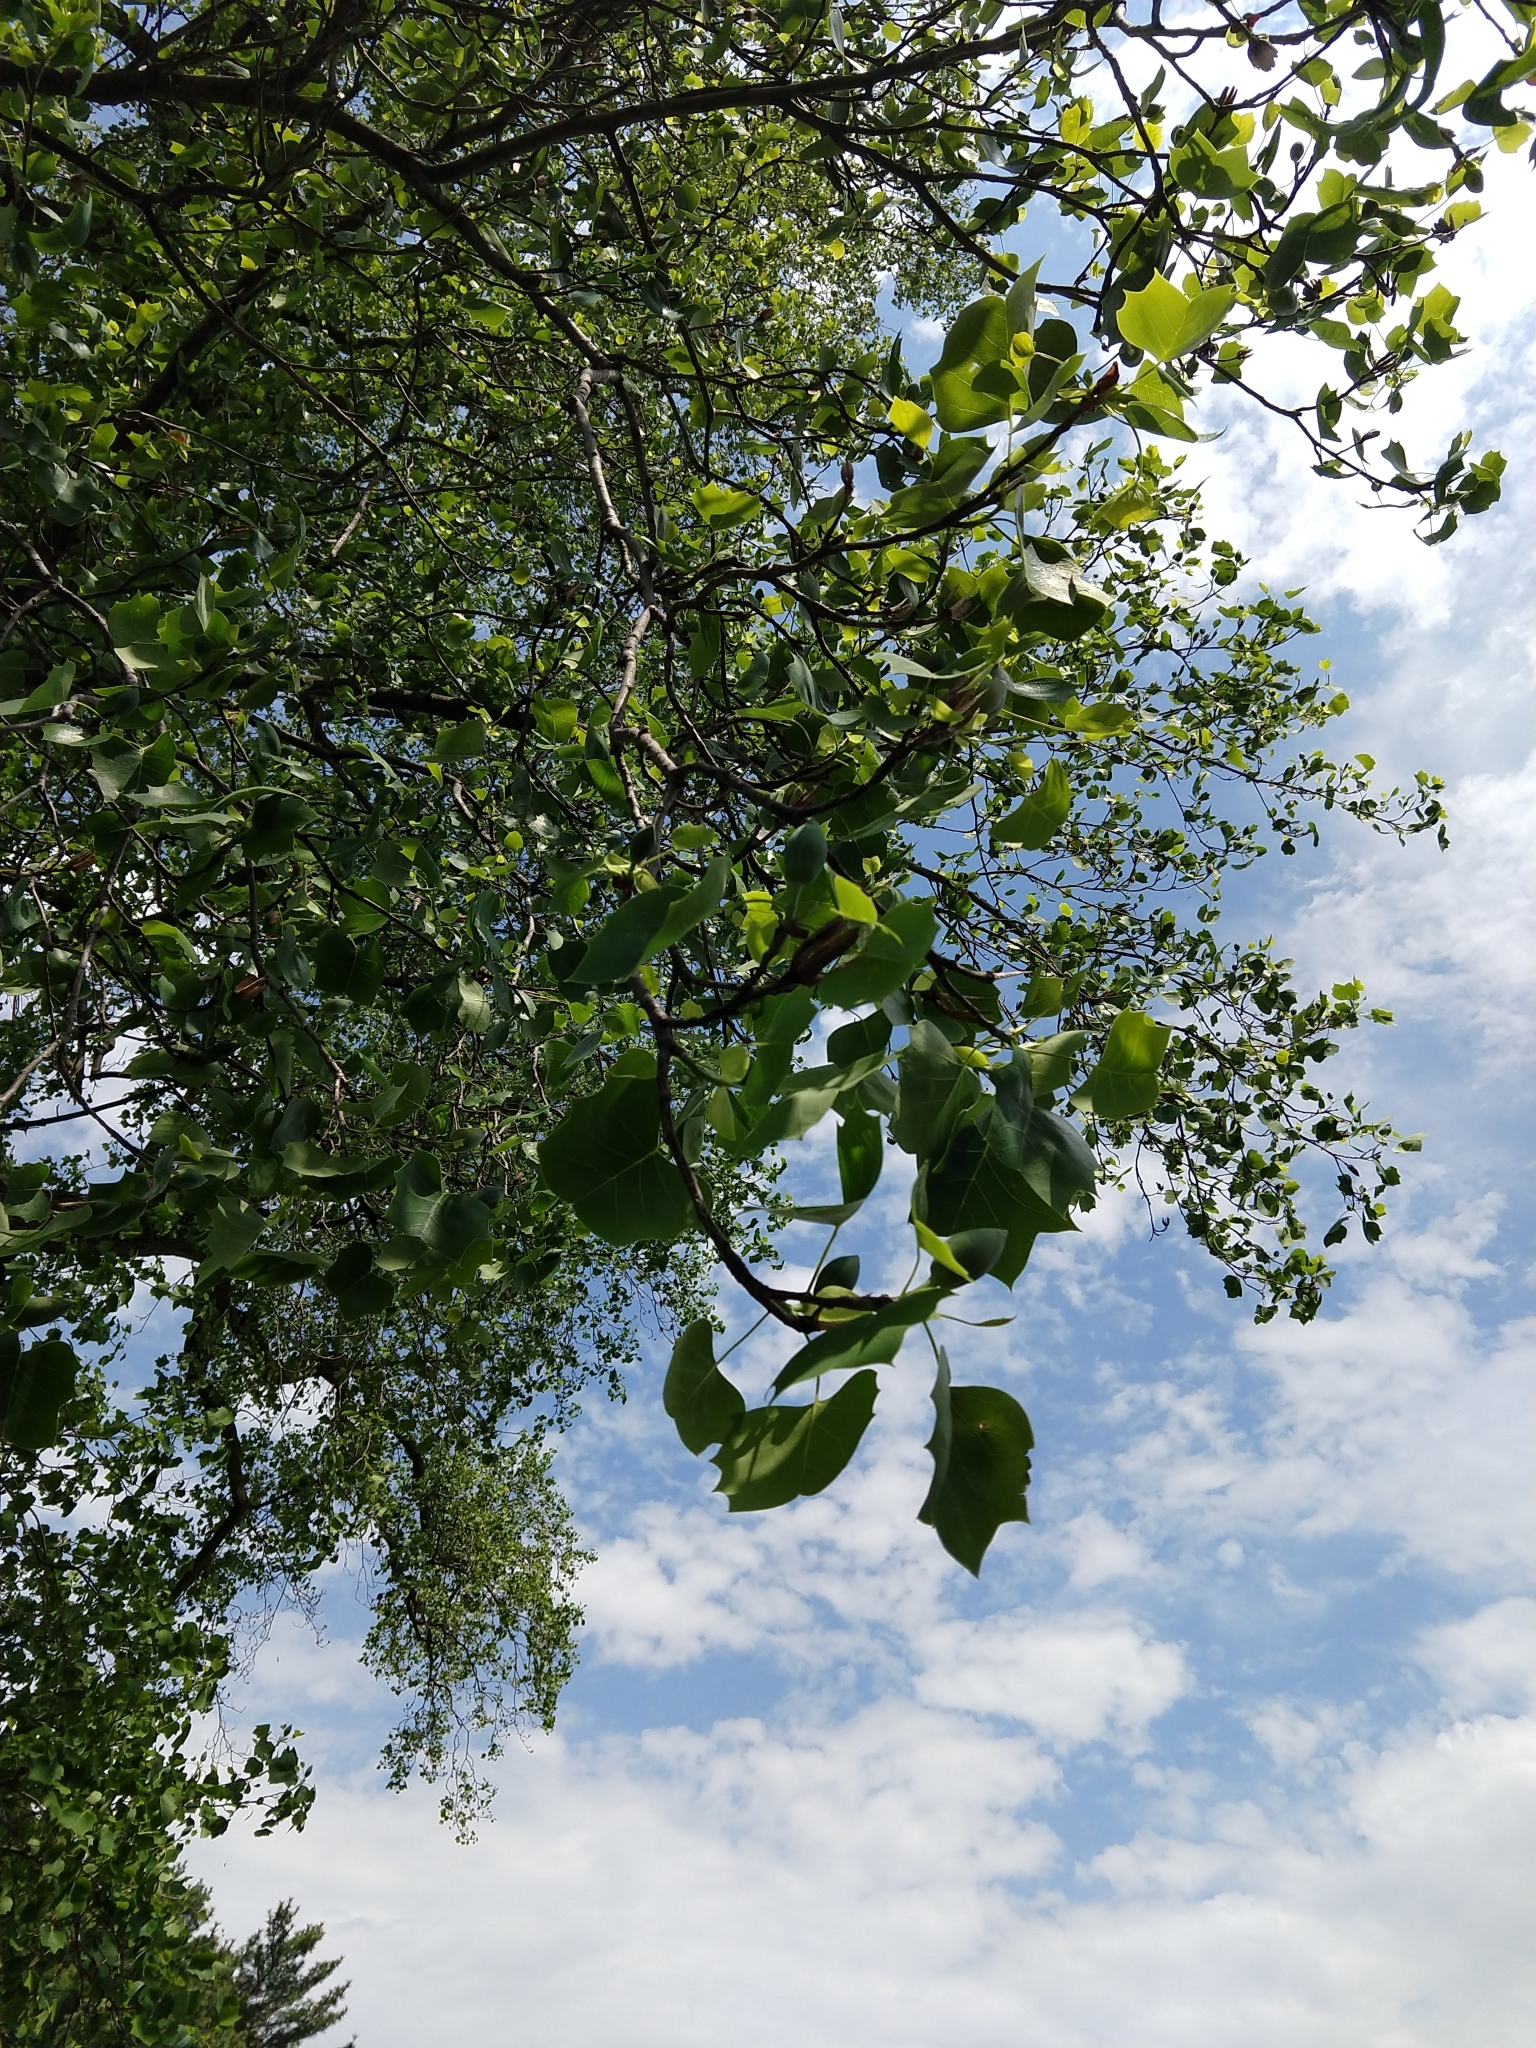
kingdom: Plantae
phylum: Tracheophyta
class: Magnoliopsida
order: Magnoliales
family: Magnoliaceae
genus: Liriodendron
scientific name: Liriodendron tulipifera
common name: Tulip tree
